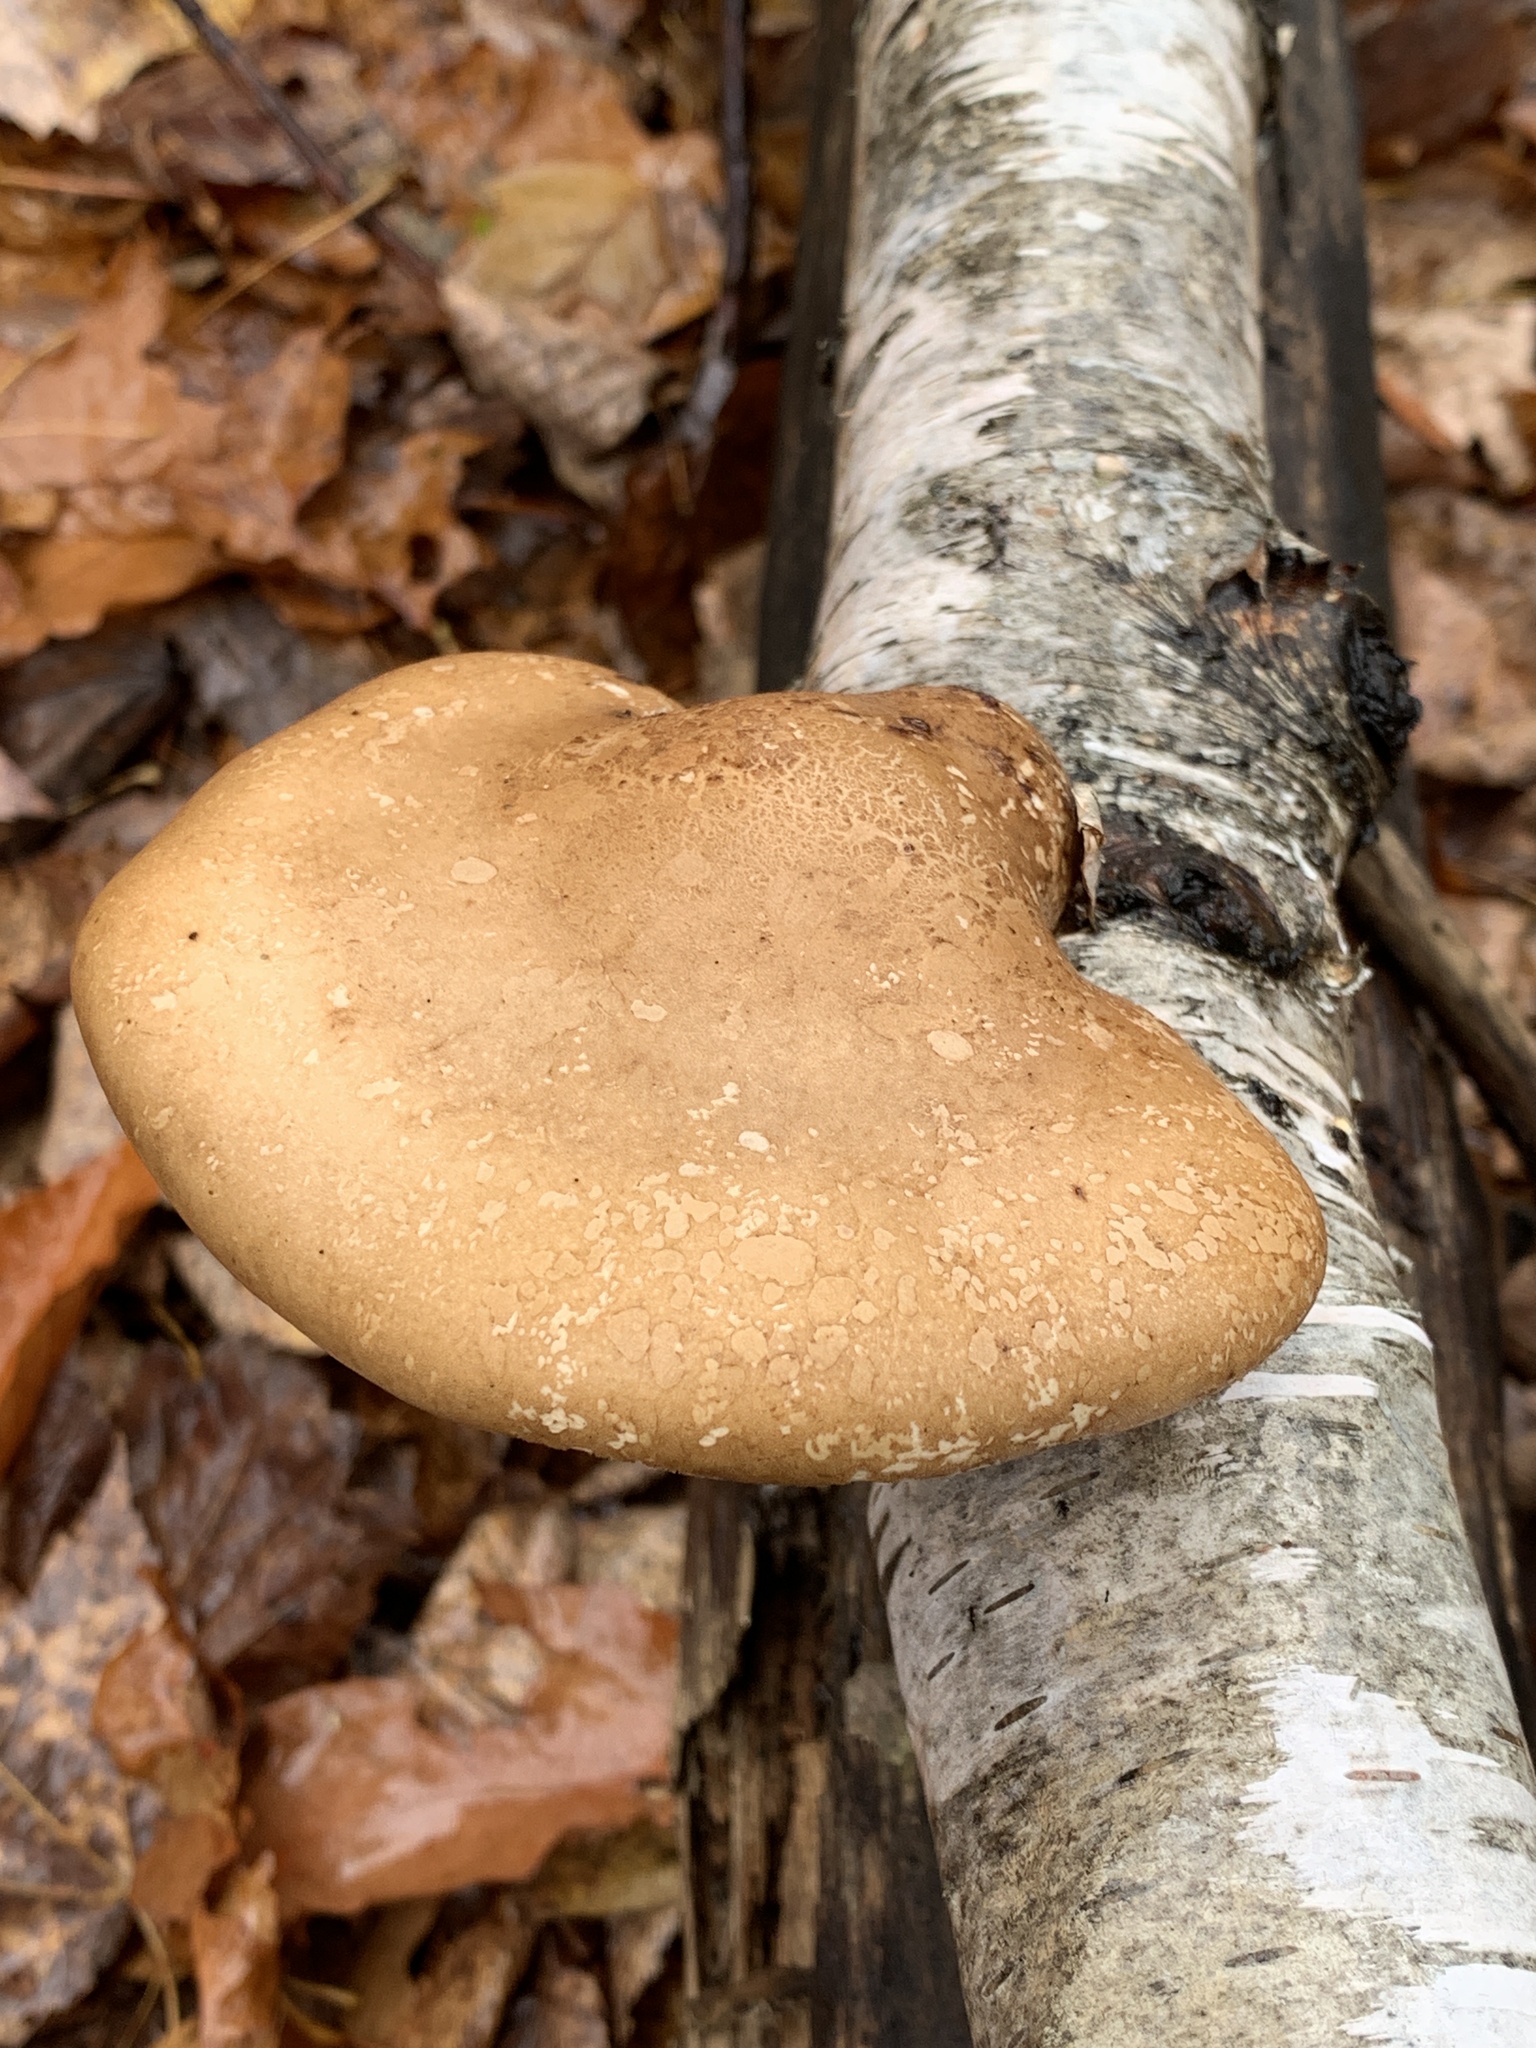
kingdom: Fungi
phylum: Basidiomycota
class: Agaricomycetes
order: Polyporales
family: Fomitopsidaceae
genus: Fomitopsis
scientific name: Fomitopsis betulina
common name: Birch polypore
